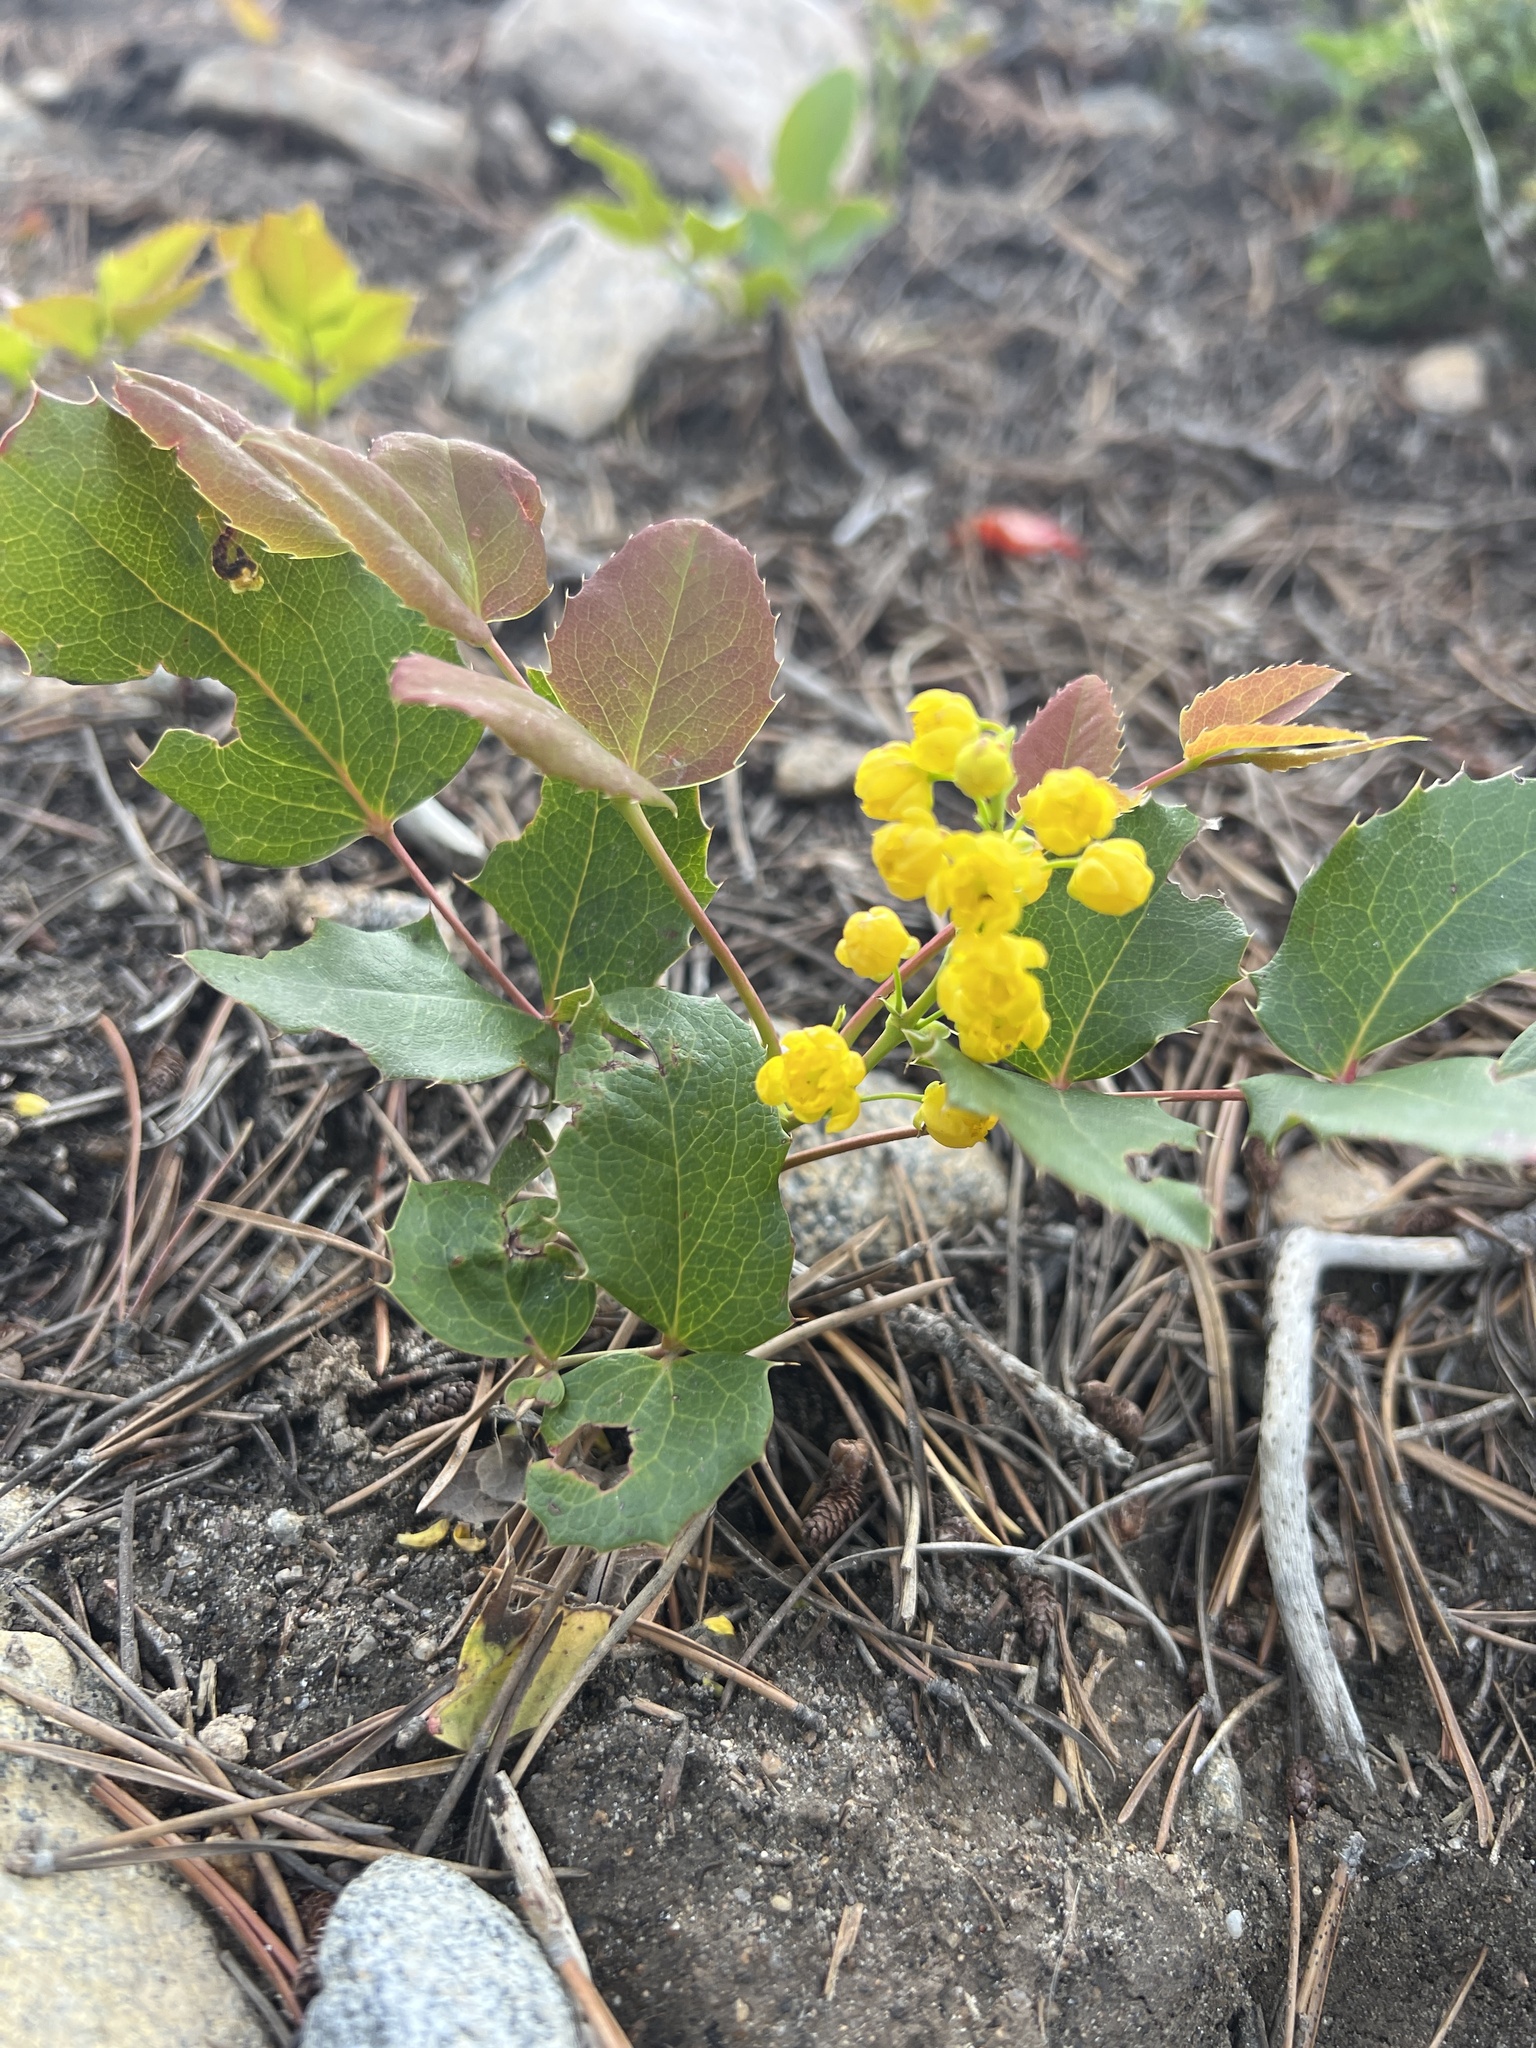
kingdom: Plantae
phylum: Tracheophyta
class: Magnoliopsida
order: Ranunculales
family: Berberidaceae
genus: Mahonia
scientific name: Mahonia repens
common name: Creeping oregon-grape
